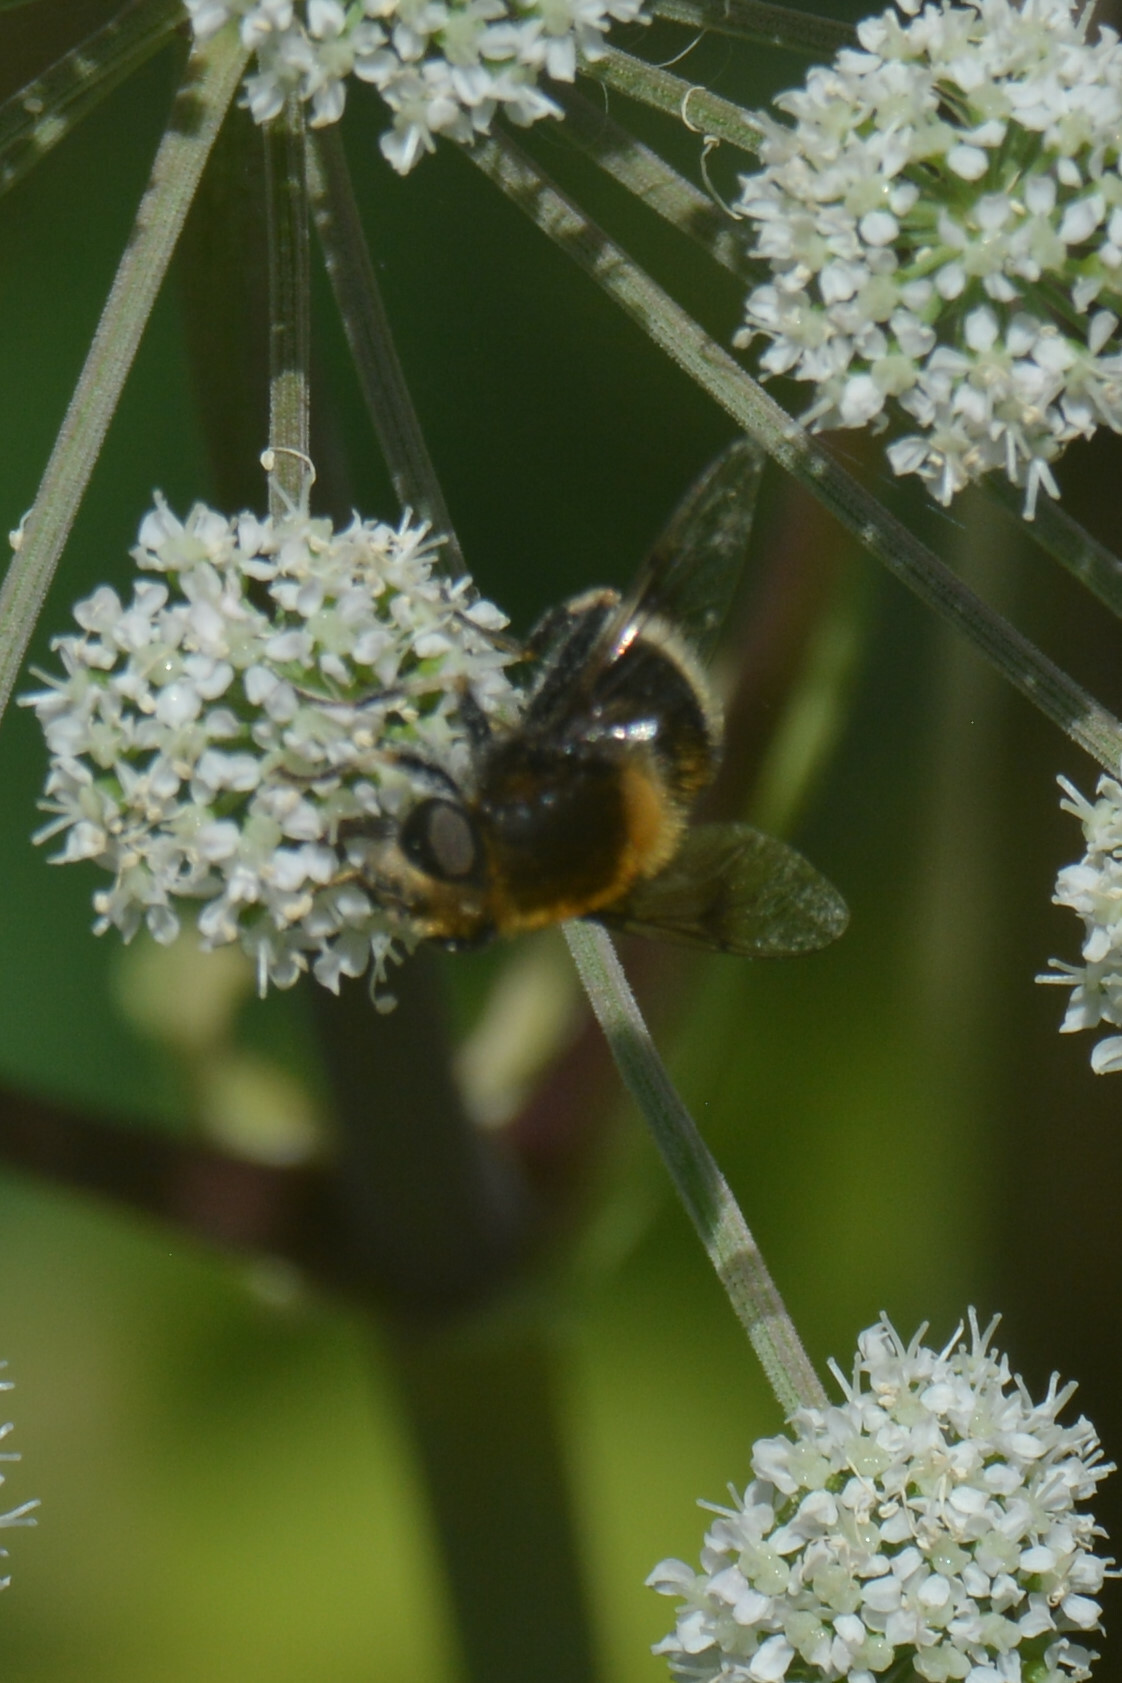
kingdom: Animalia
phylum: Arthropoda
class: Insecta
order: Diptera
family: Syrphidae
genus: Eristalis
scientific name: Eristalis intricaria
